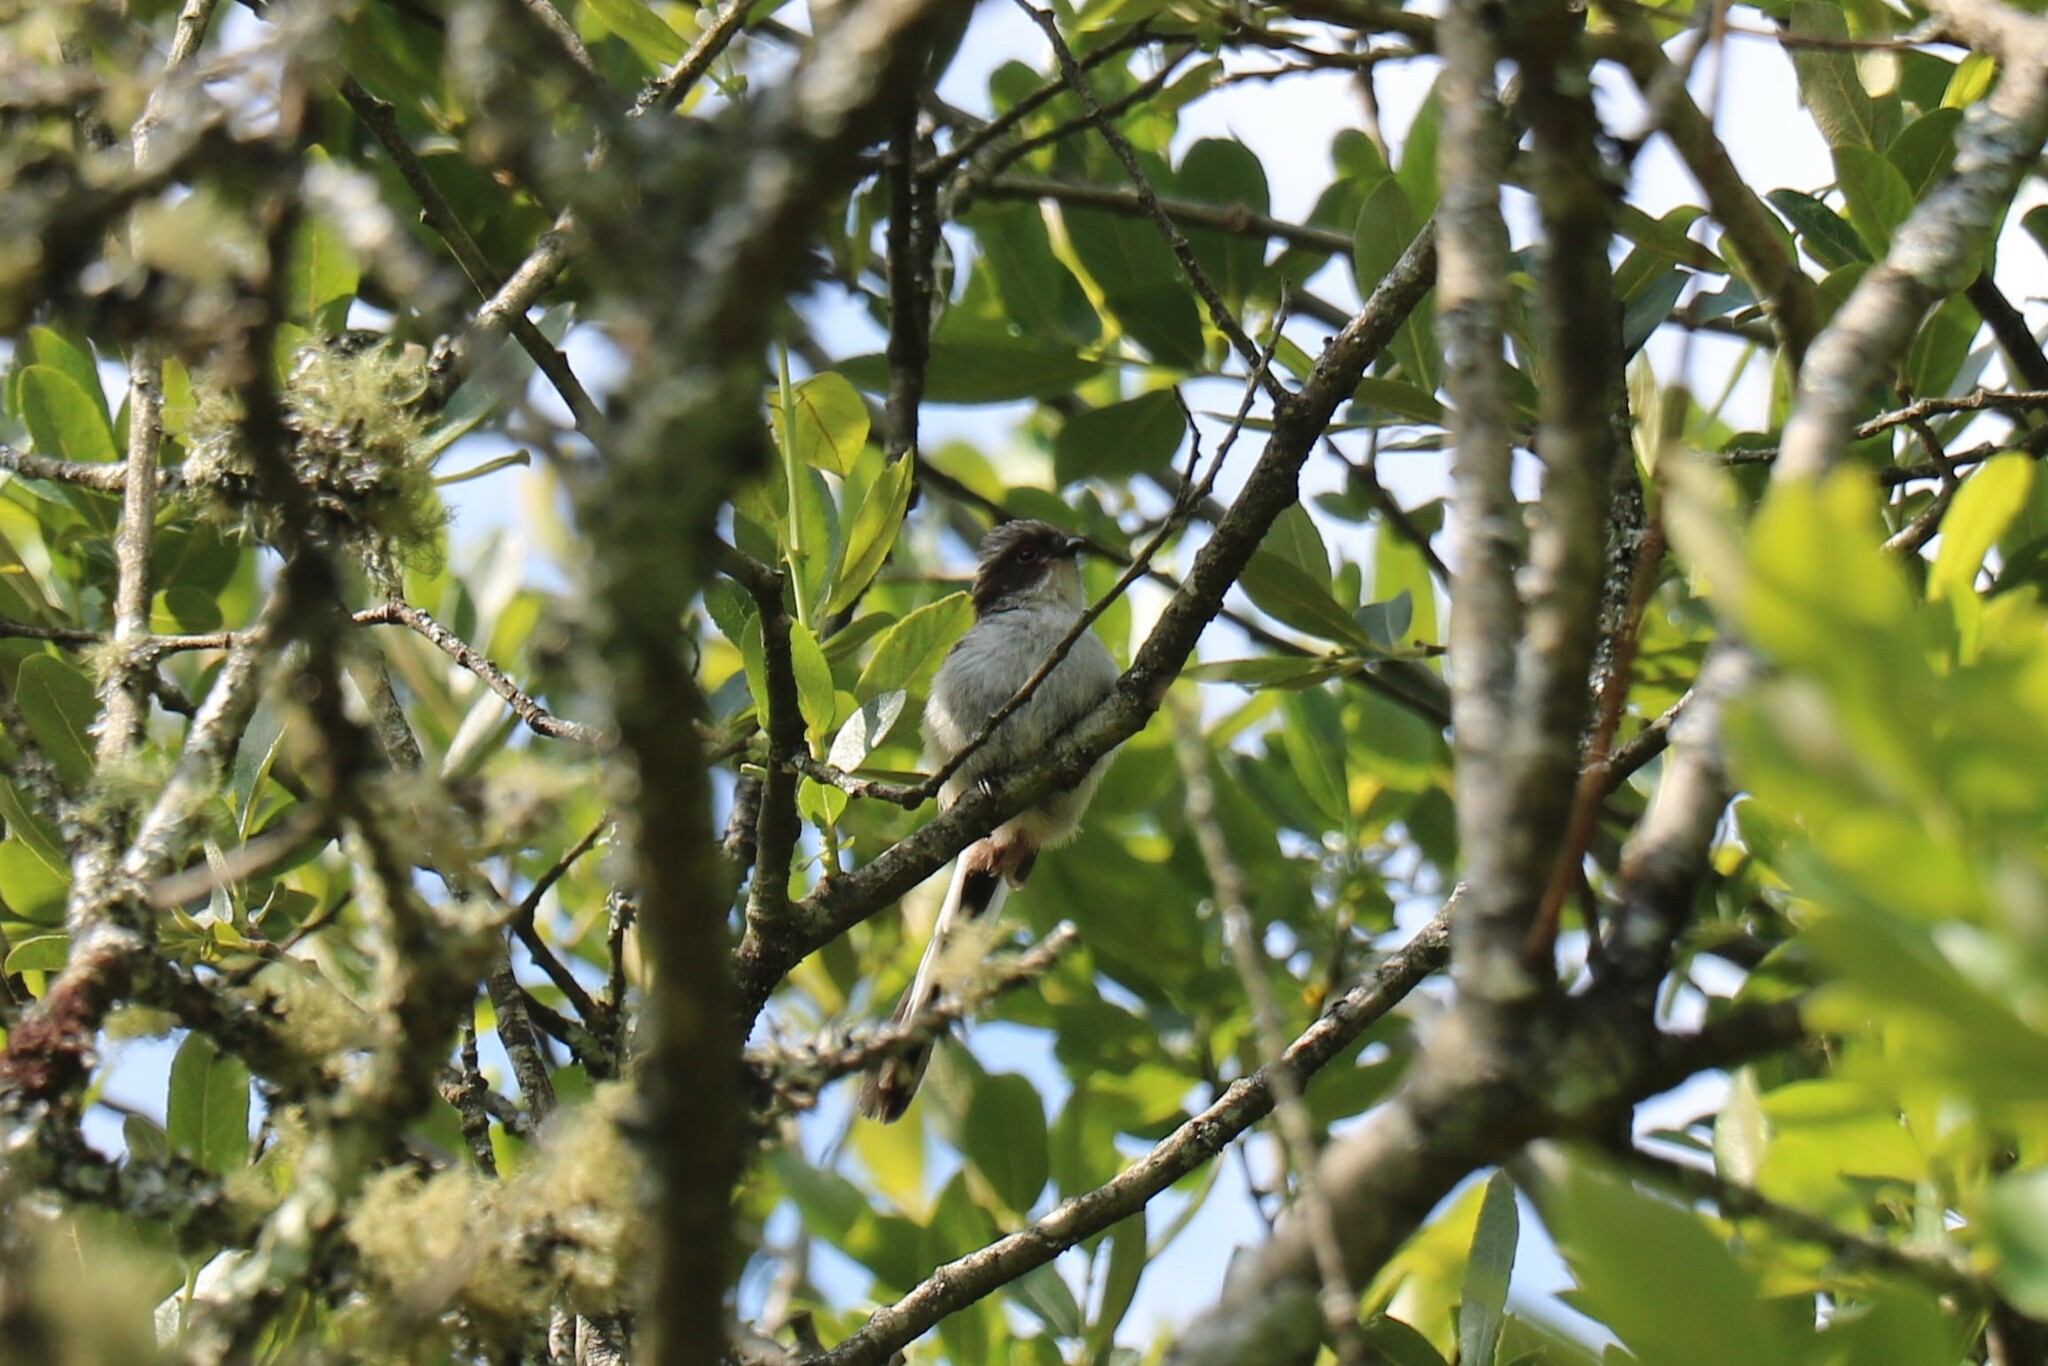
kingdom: Animalia
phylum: Chordata
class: Aves
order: Passeriformes
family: Aegithalidae
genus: Aegithalos
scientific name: Aegithalos caudatus
